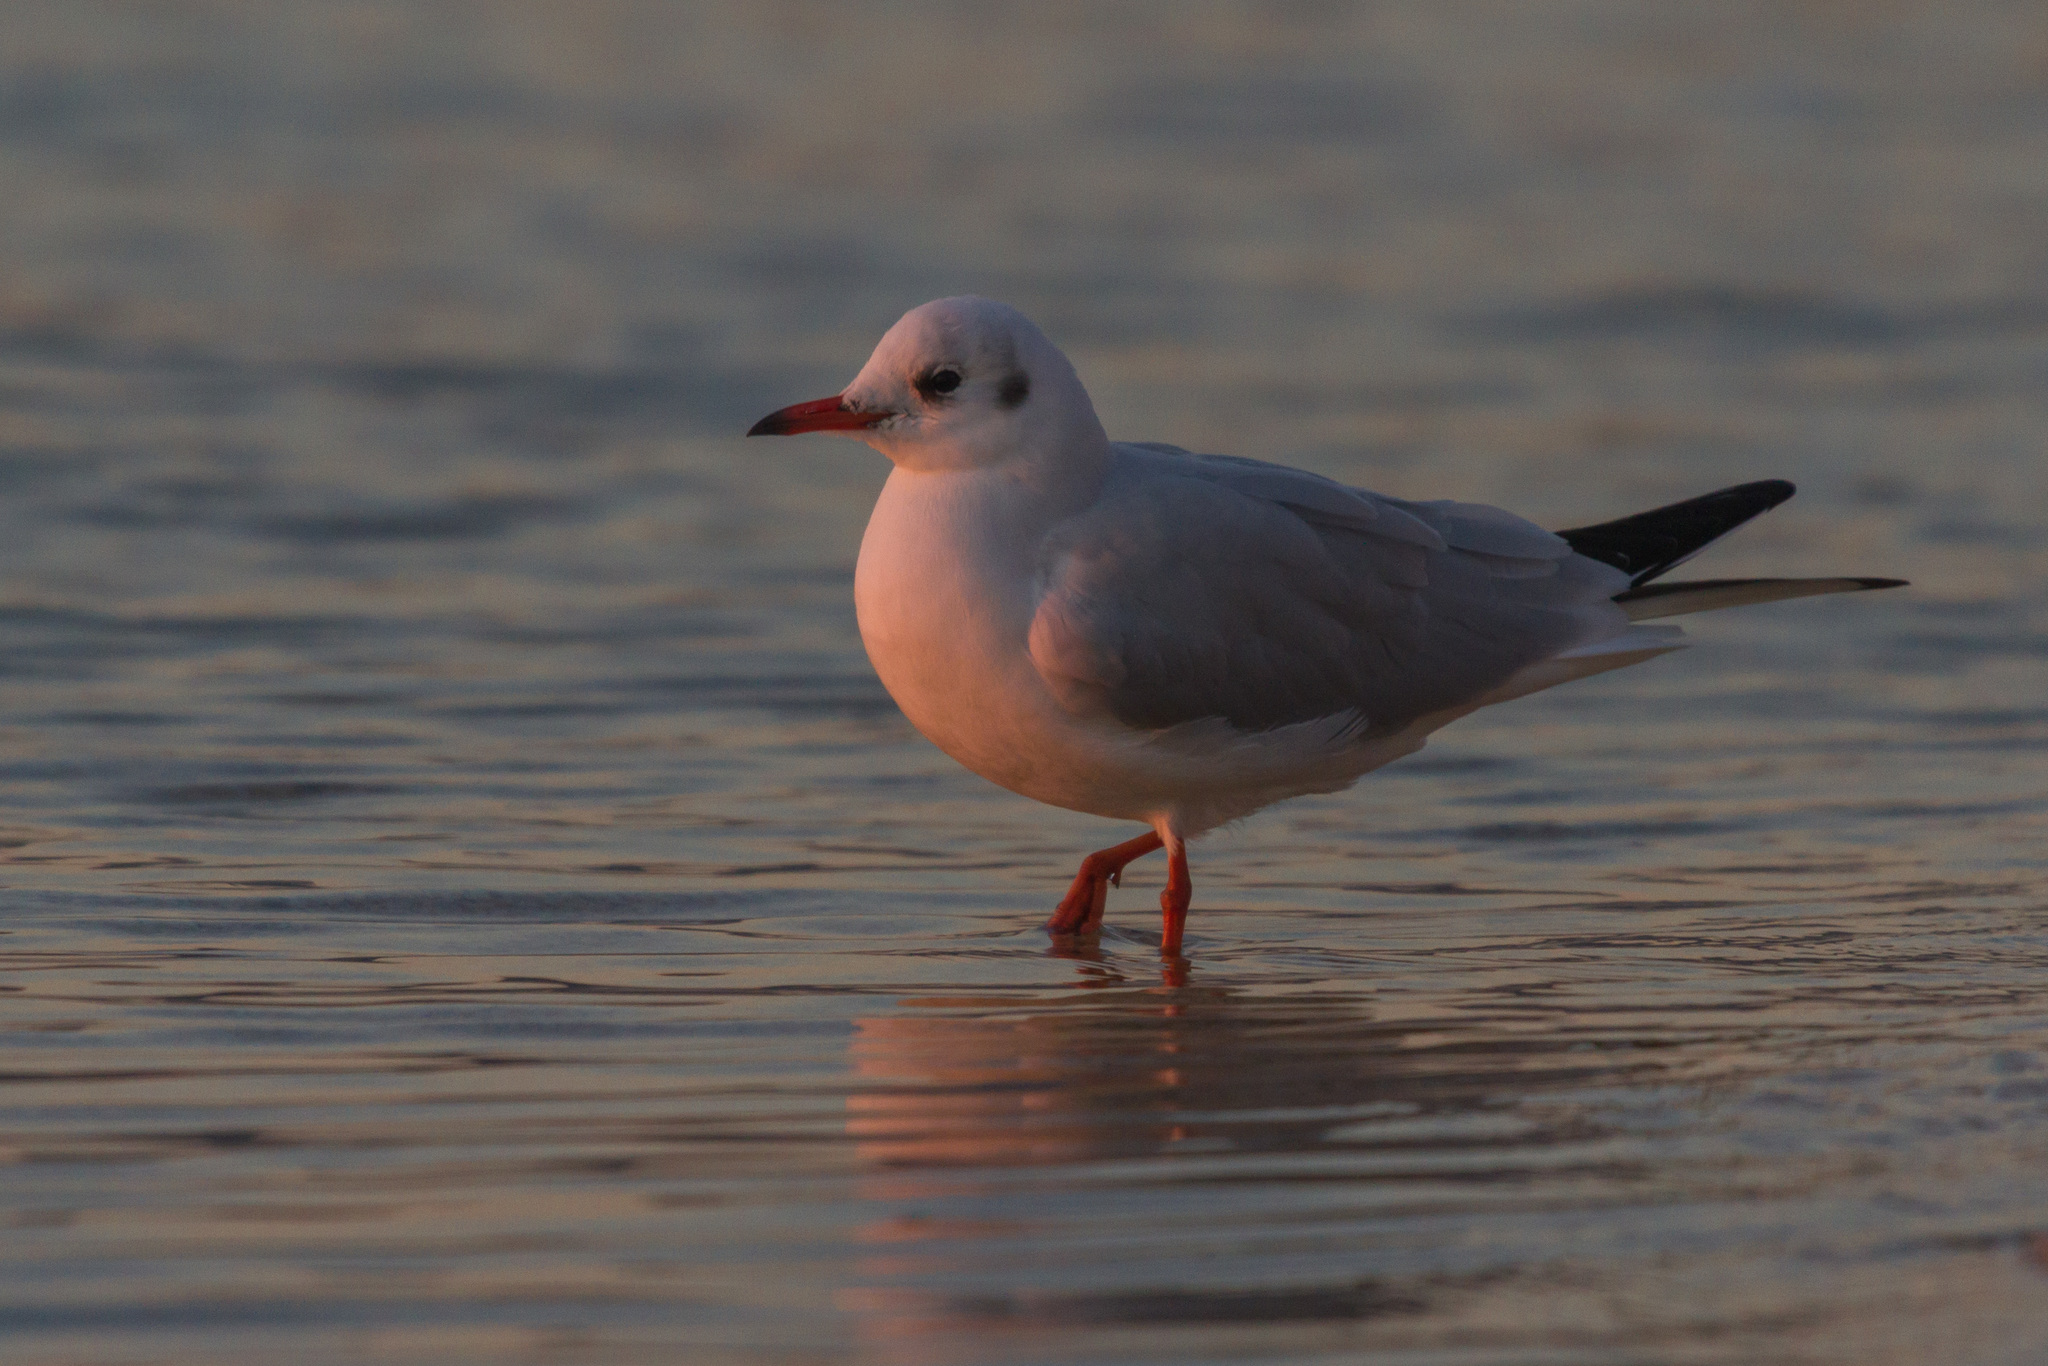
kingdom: Animalia
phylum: Chordata
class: Aves
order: Charadriiformes
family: Laridae
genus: Chroicocephalus
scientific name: Chroicocephalus ridibundus
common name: Black-headed gull
